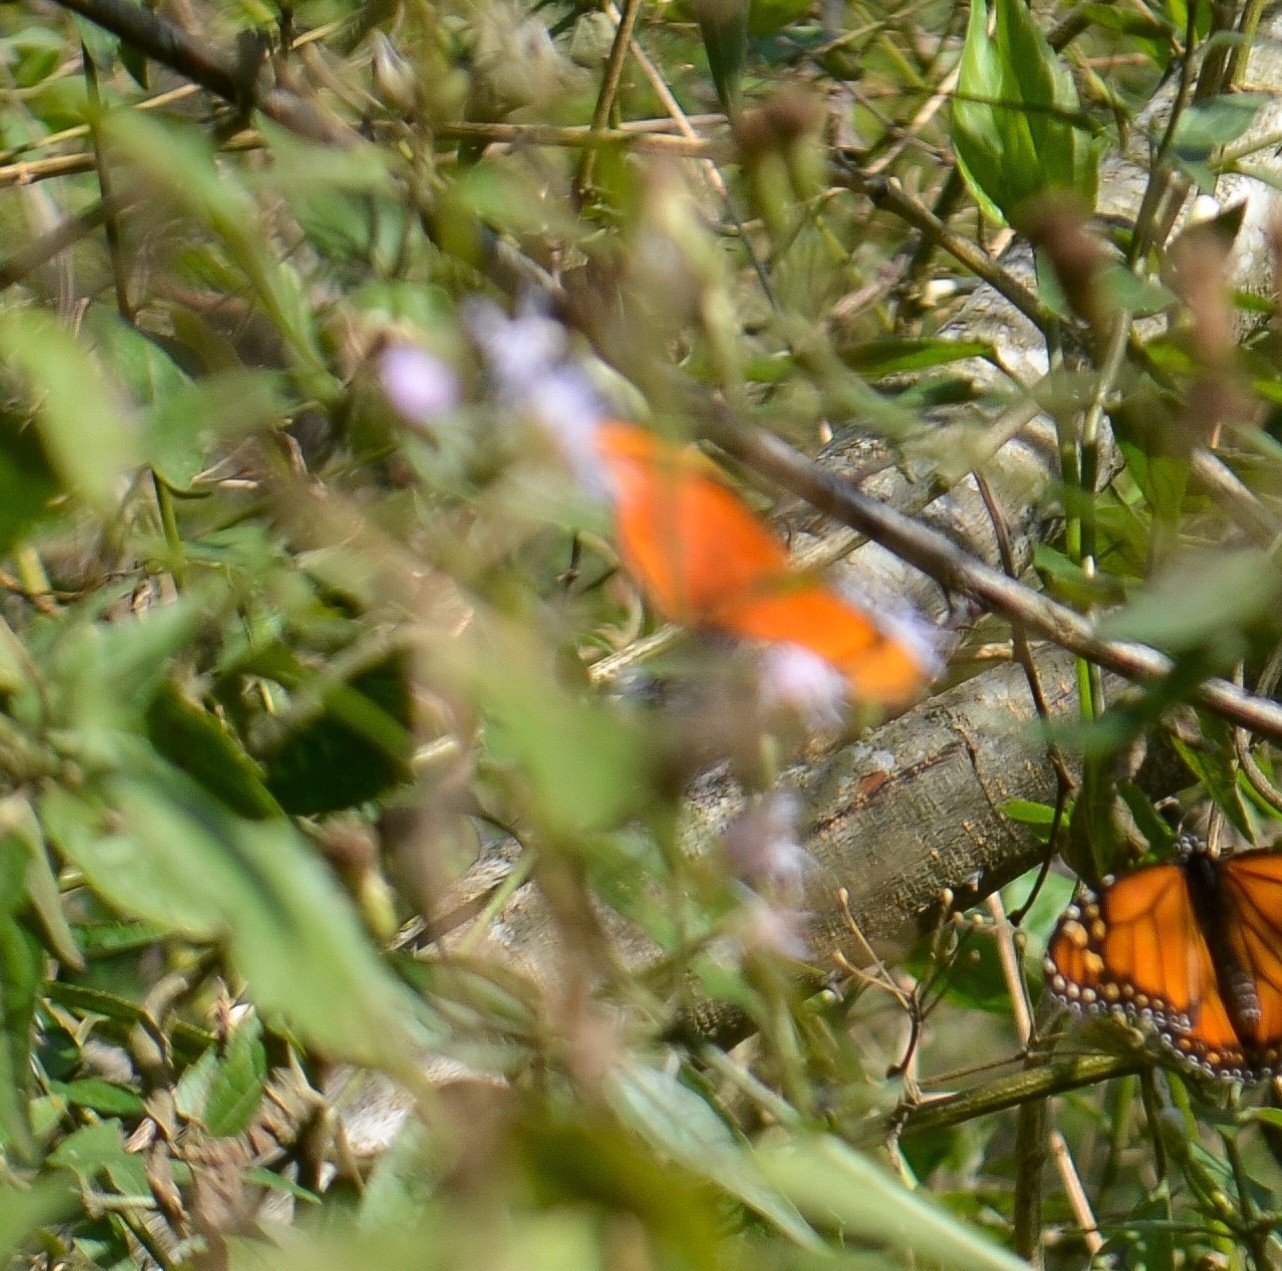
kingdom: Animalia
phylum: Arthropoda
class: Insecta
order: Lepidoptera
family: Nymphalidae
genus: Dryas
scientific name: Dryas iulia
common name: Flambeau
